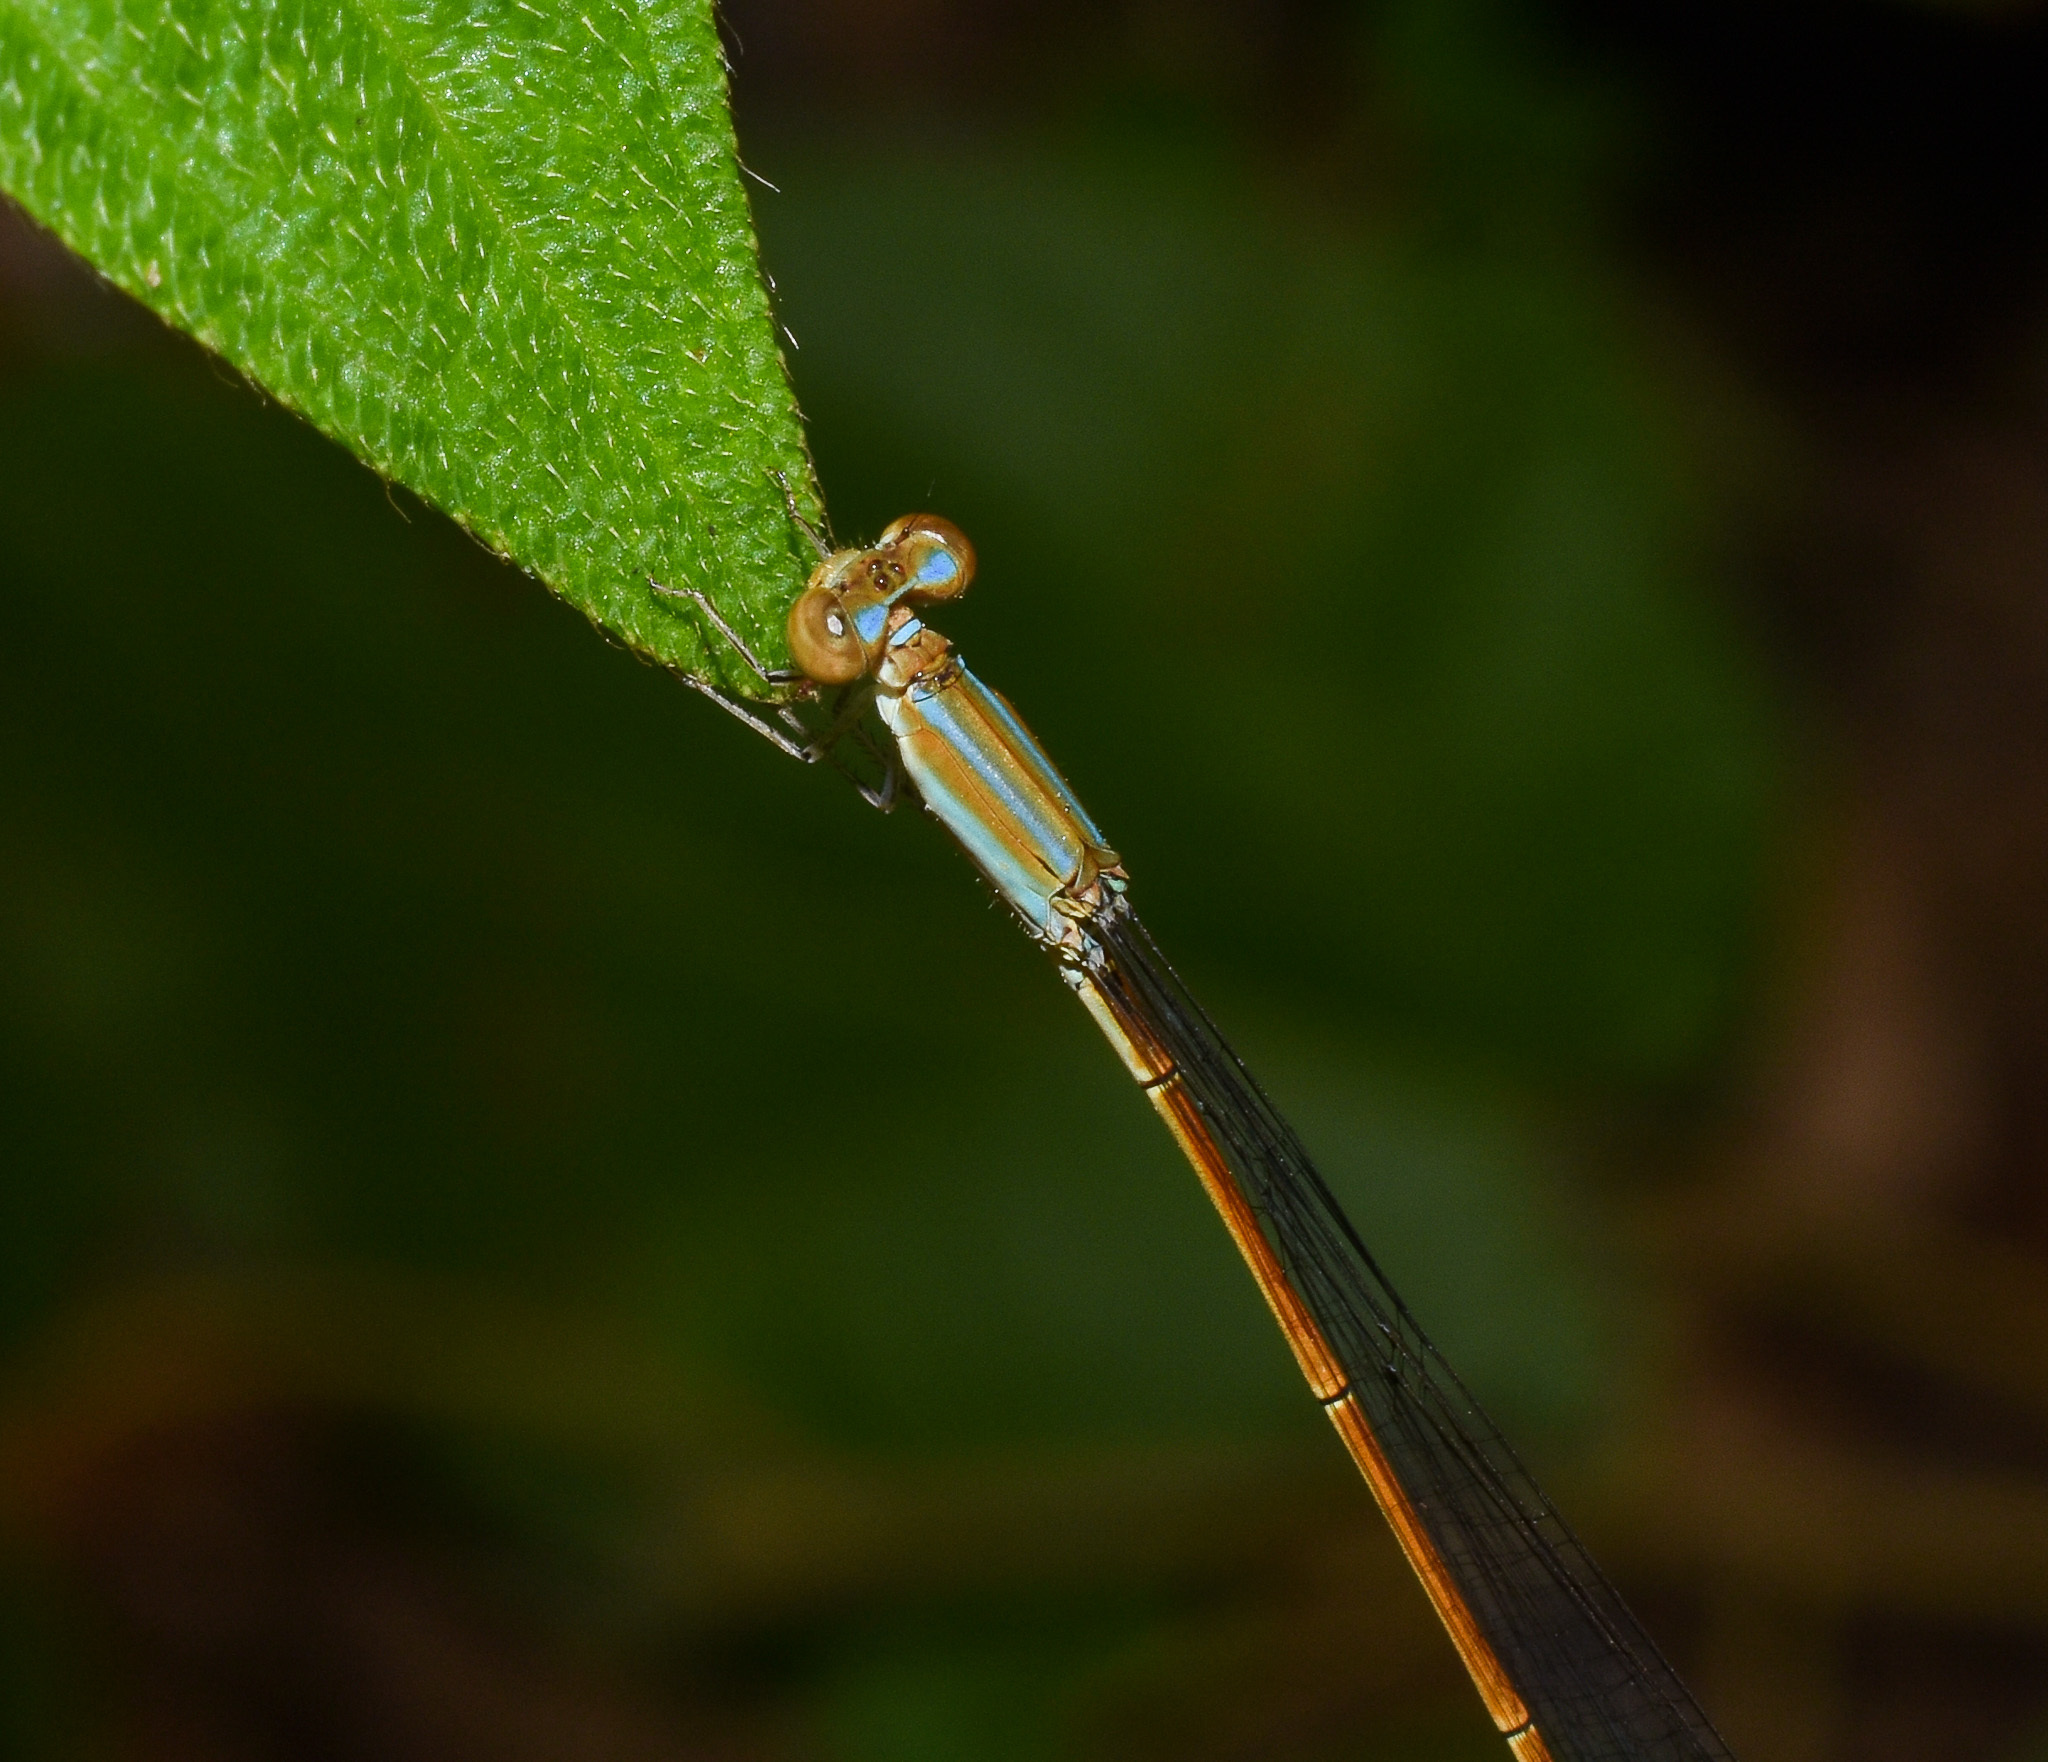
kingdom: Animalia
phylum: Arthropoda
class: Insecta
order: Odonata
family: Coenagrionidae
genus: Aciagrion
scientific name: Aciagrion pallidum
